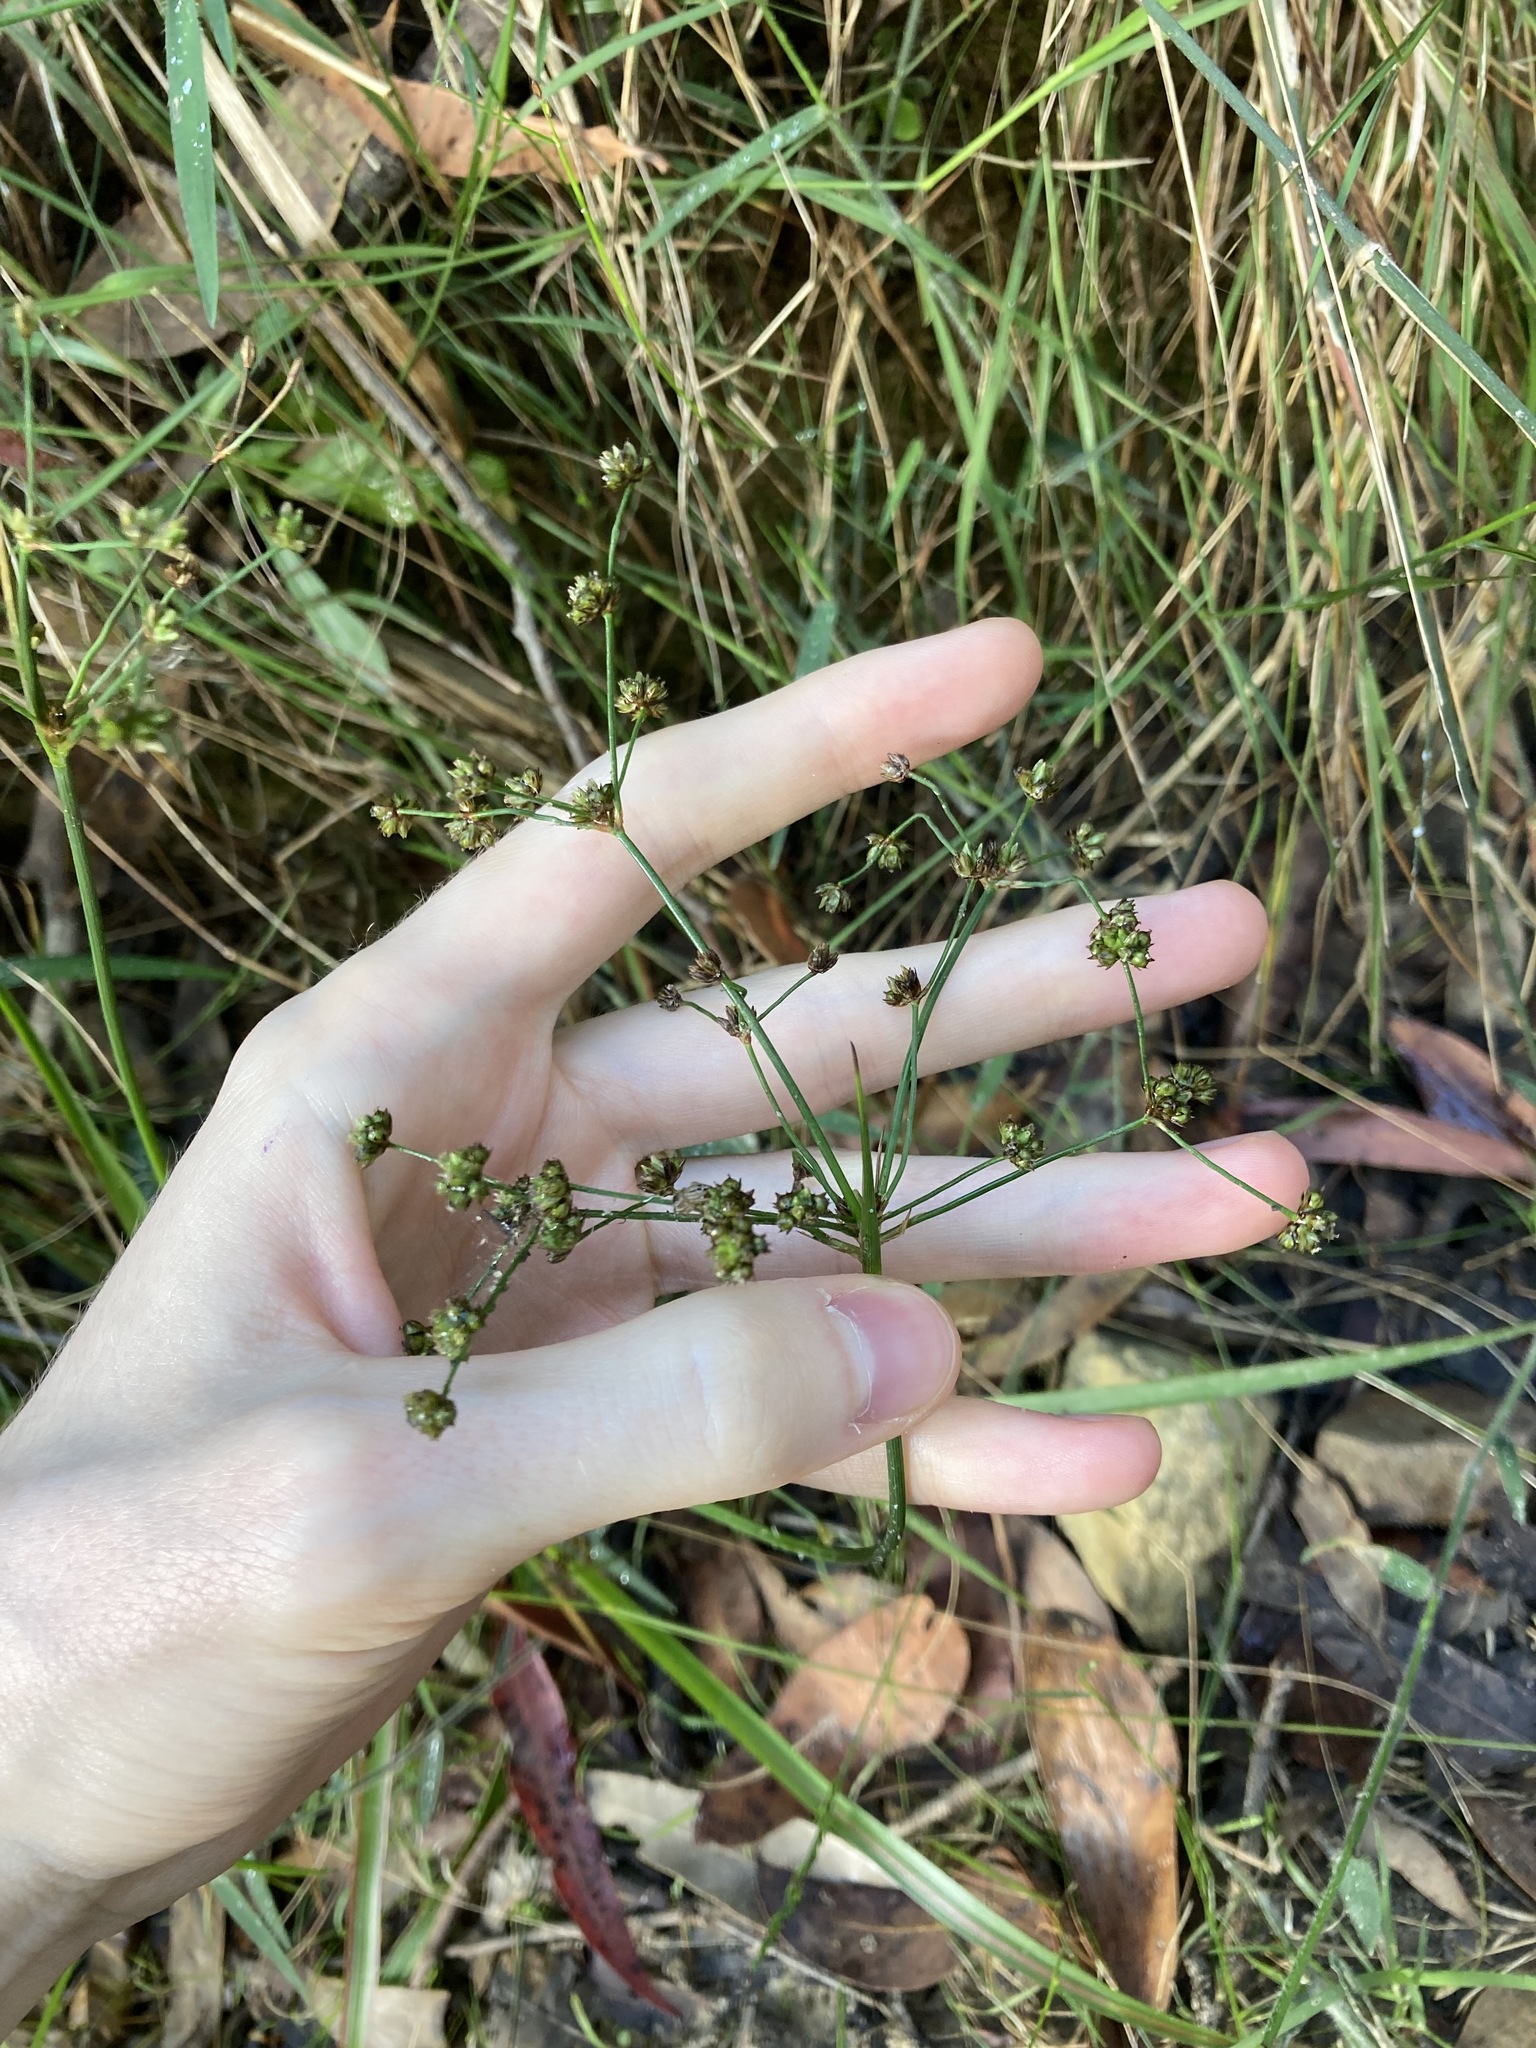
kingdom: Plantae
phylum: Tracheophyta
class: Liliopsida
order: Poales
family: Juncaceae
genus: Juncus
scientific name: Juncus planifolius
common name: Broadleaf rush
